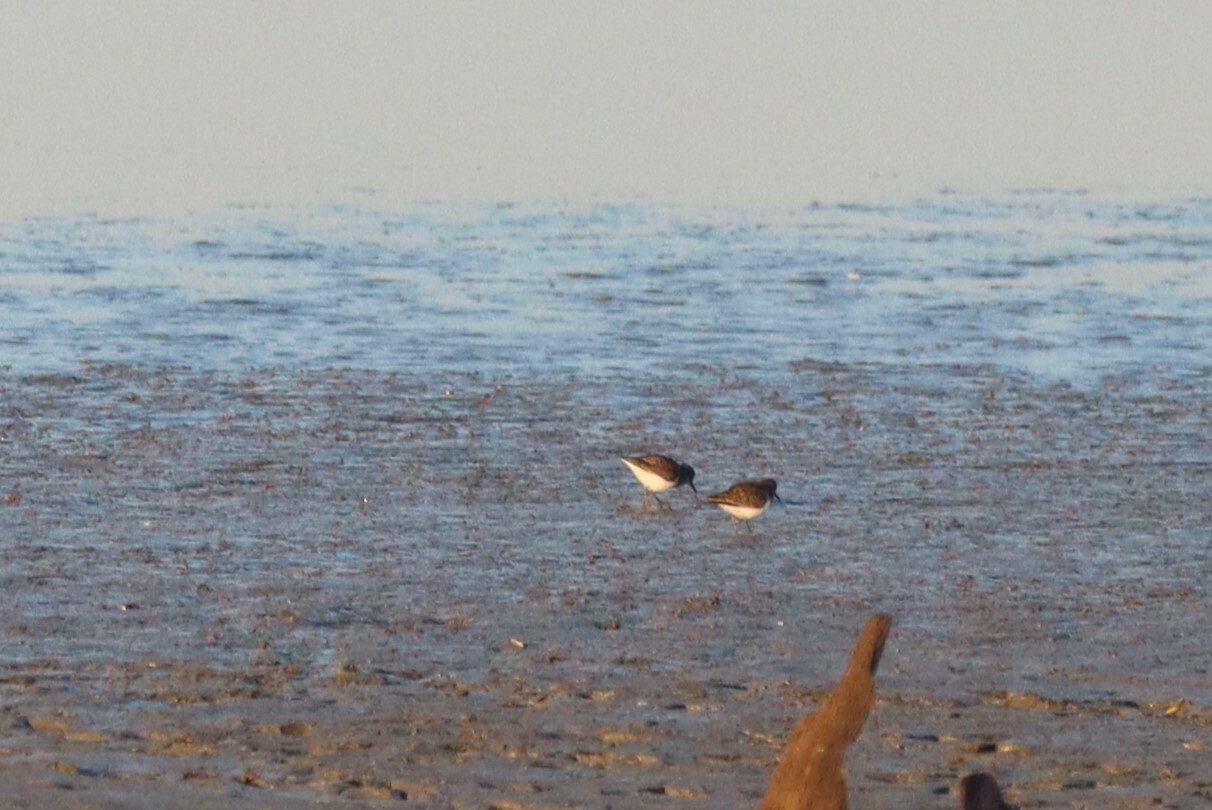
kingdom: Animalia
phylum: Chordata
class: Aves
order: Charadriiformes
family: Scolopacidae
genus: Calidris
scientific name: Calidris minutilla
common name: Least sandpiper
